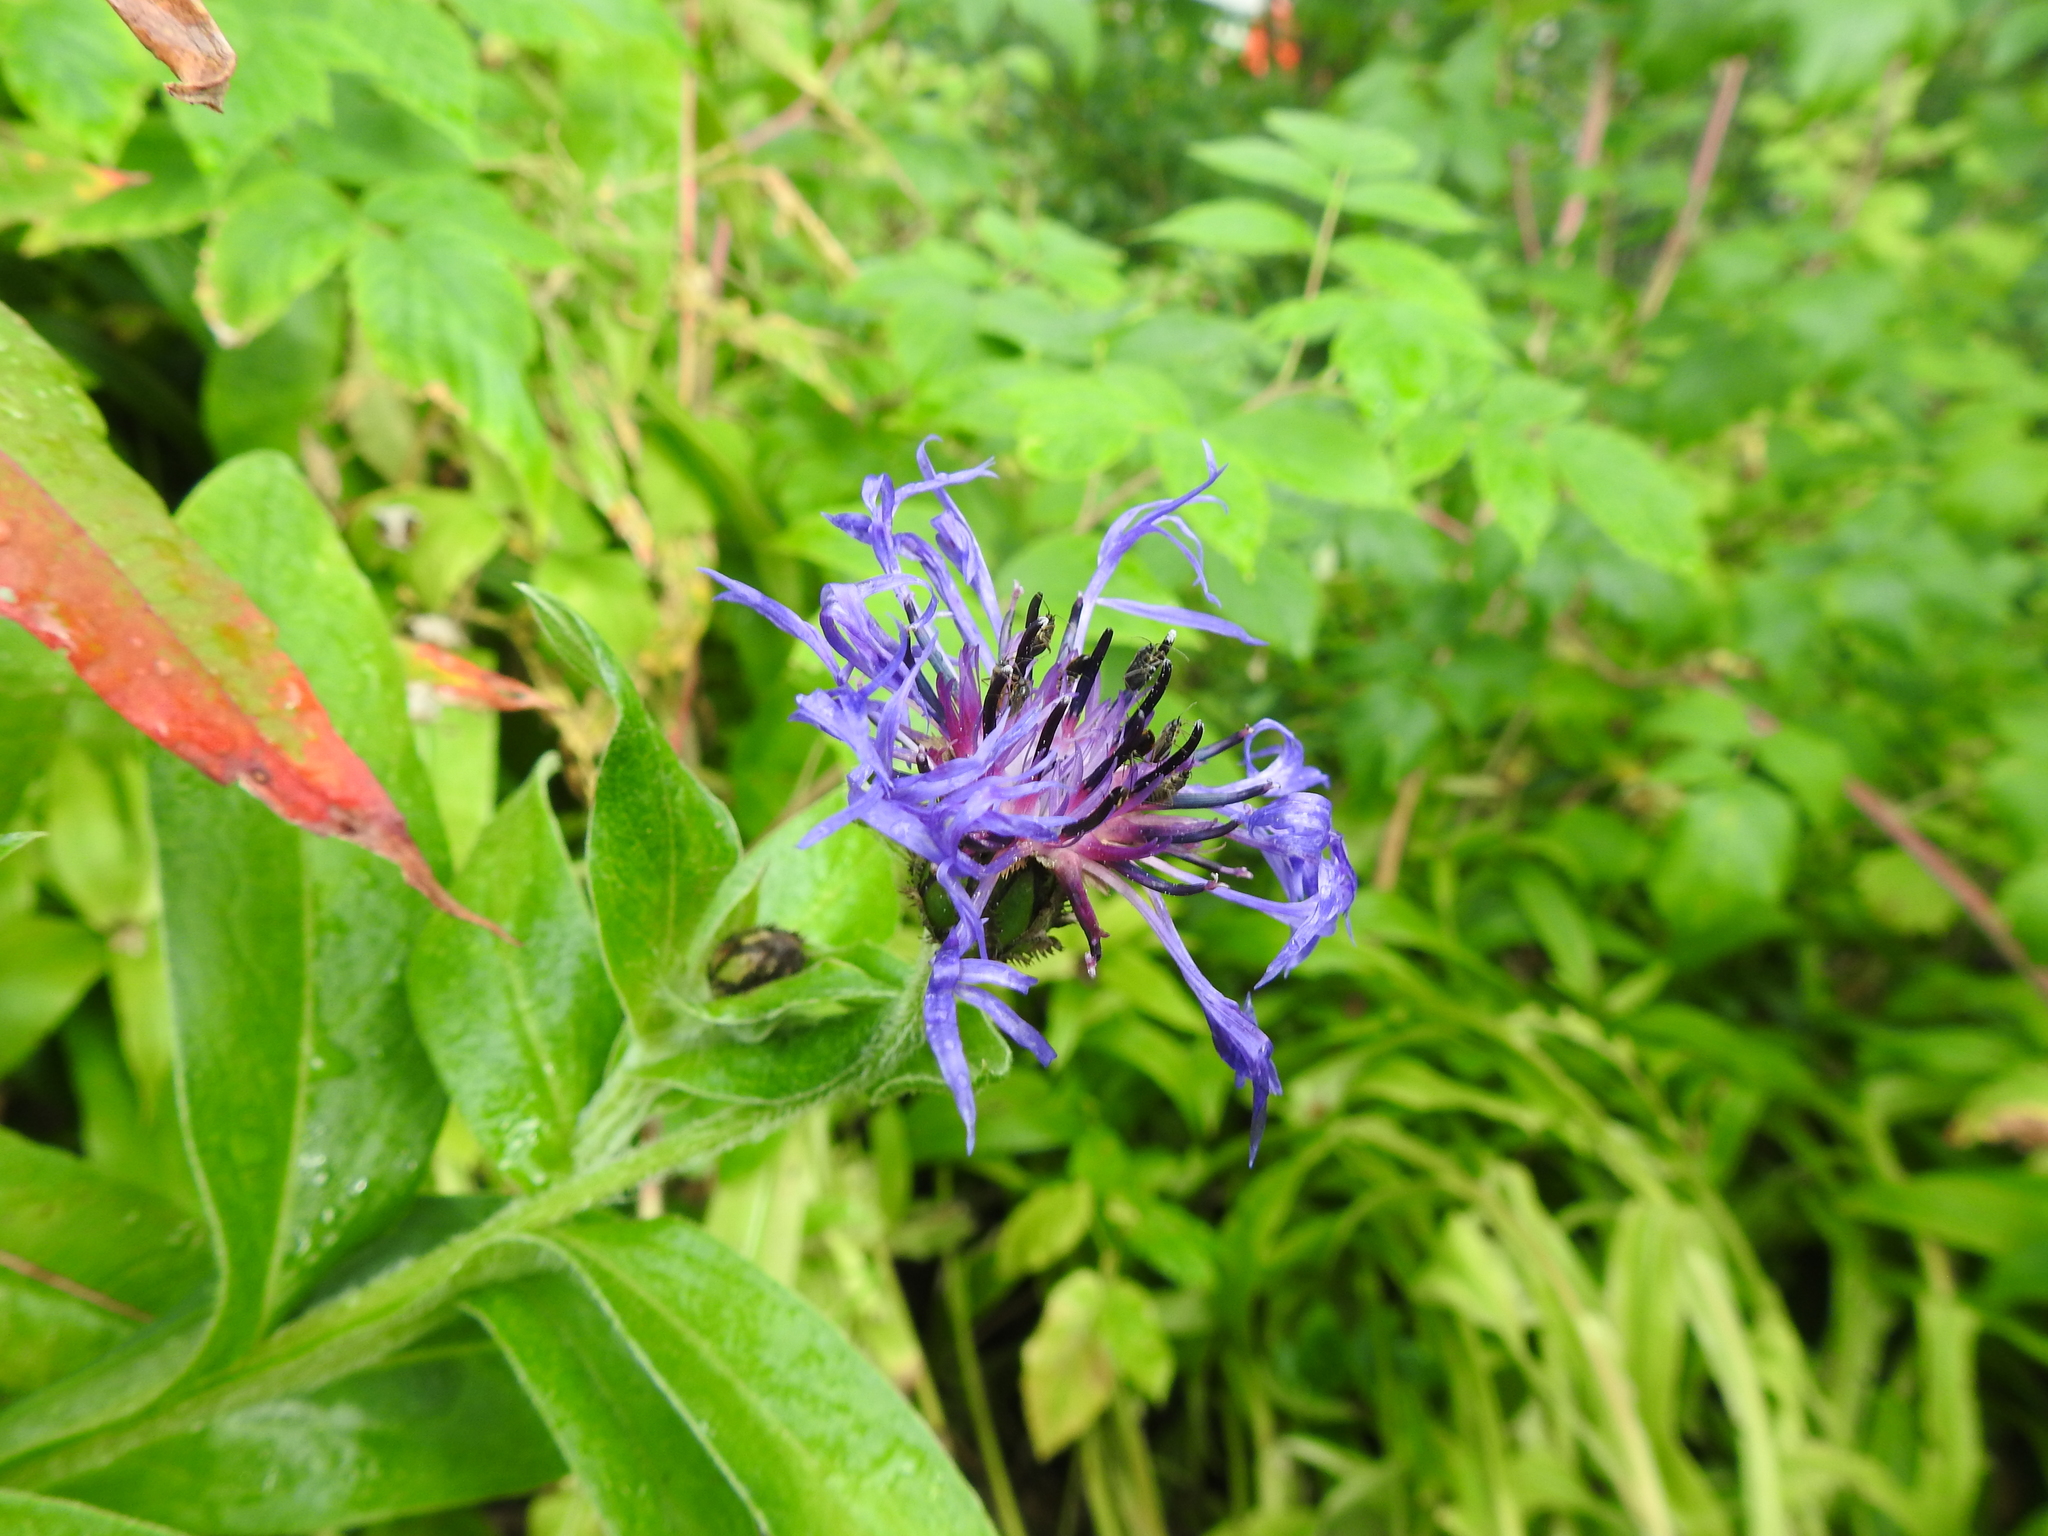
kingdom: Plantae
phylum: Tracheophyta
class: Magnoliopsida
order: Asterales
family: Asteraceae
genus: Centaurea
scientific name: Centaurea montana
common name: Perennial cornflower
